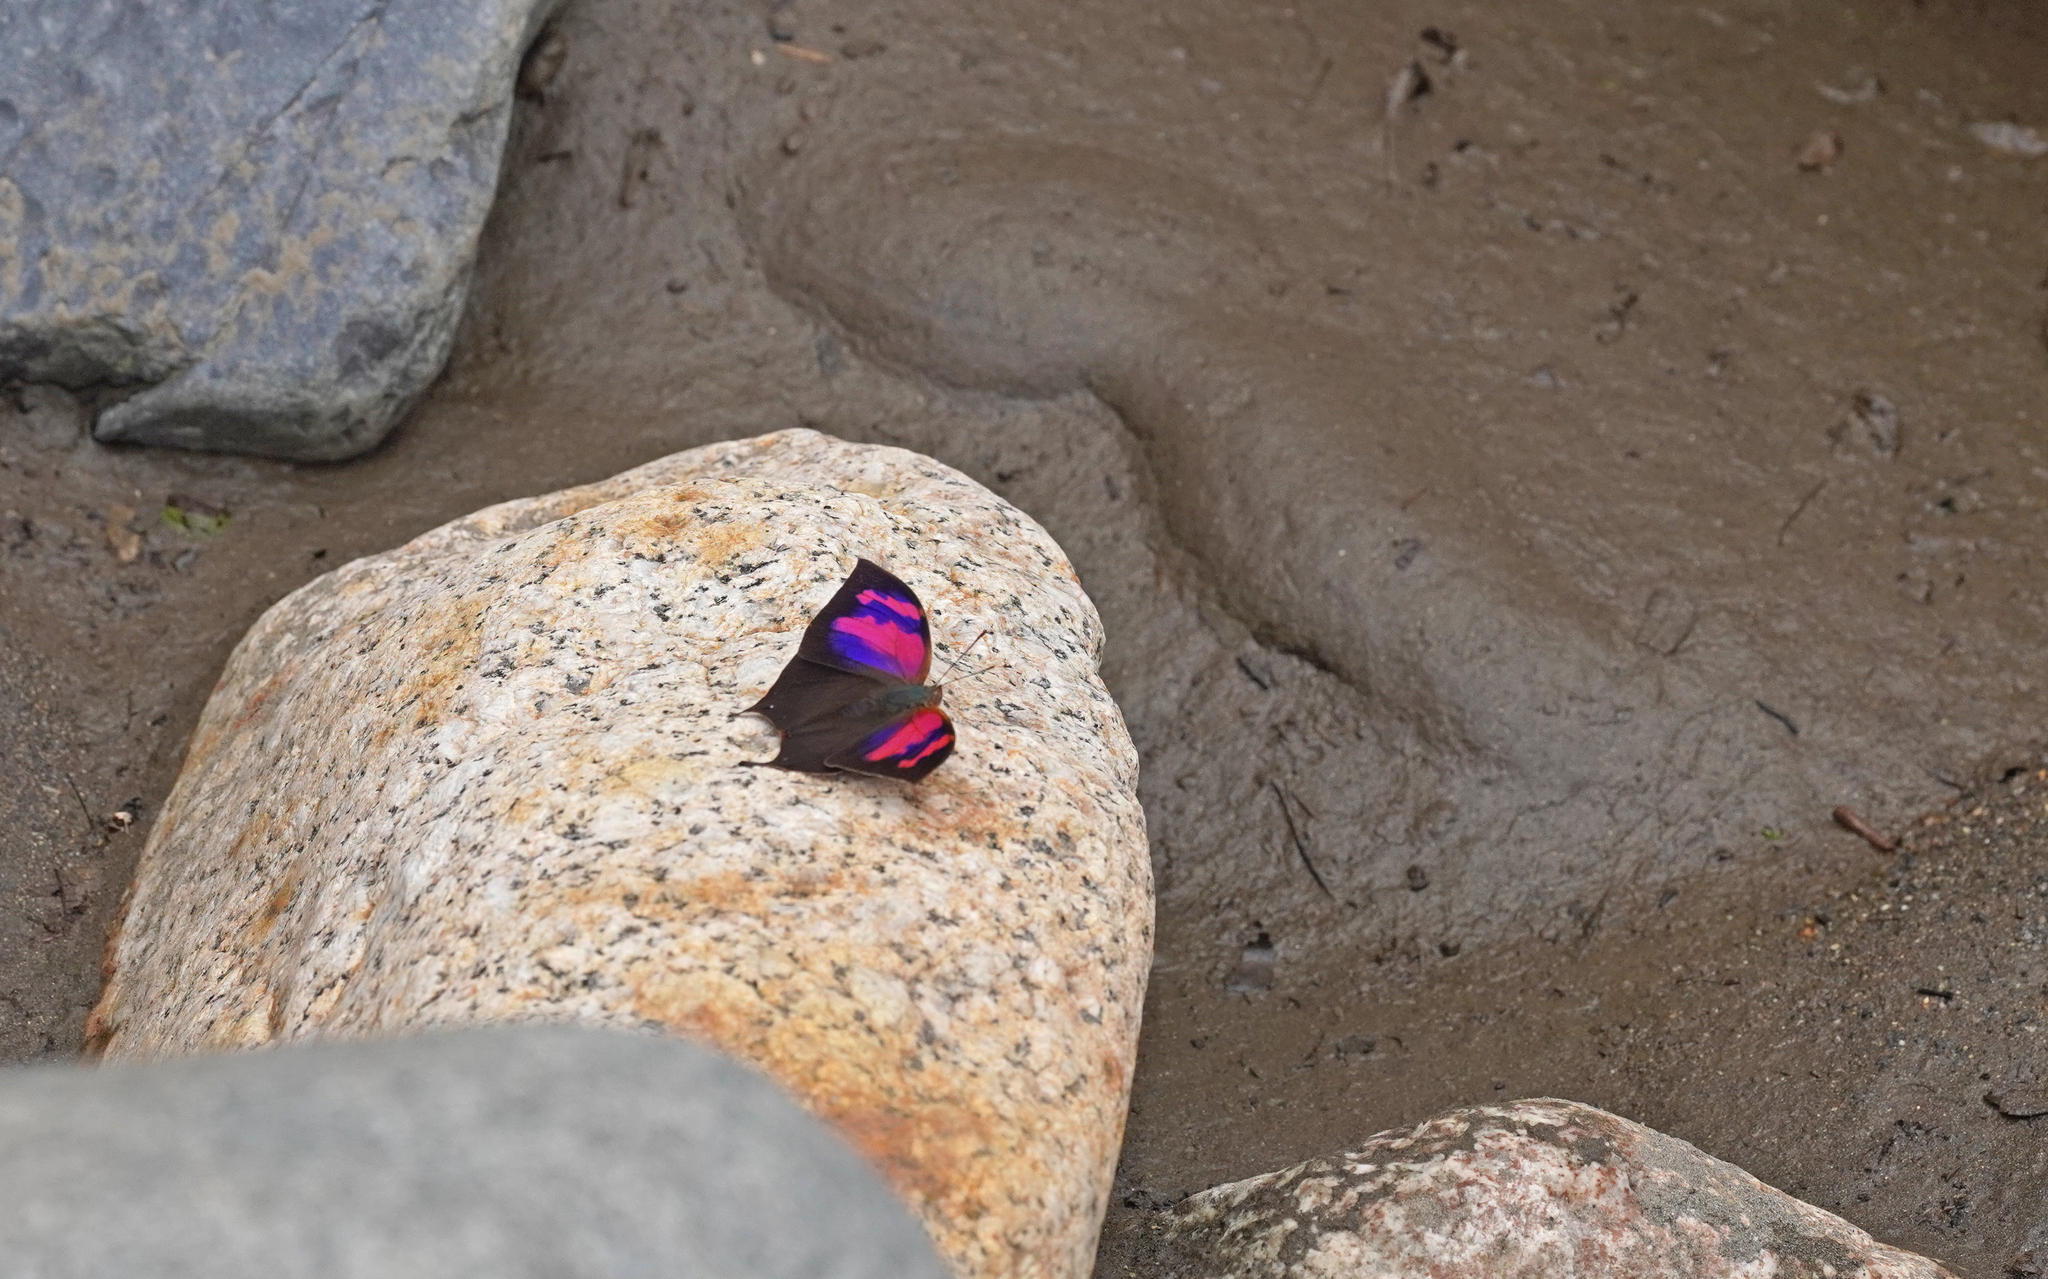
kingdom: Animalia
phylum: Arthropoda
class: Insecta
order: Lepidoptera
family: Nymphalidae
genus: Fountainea
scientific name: Fountainea
